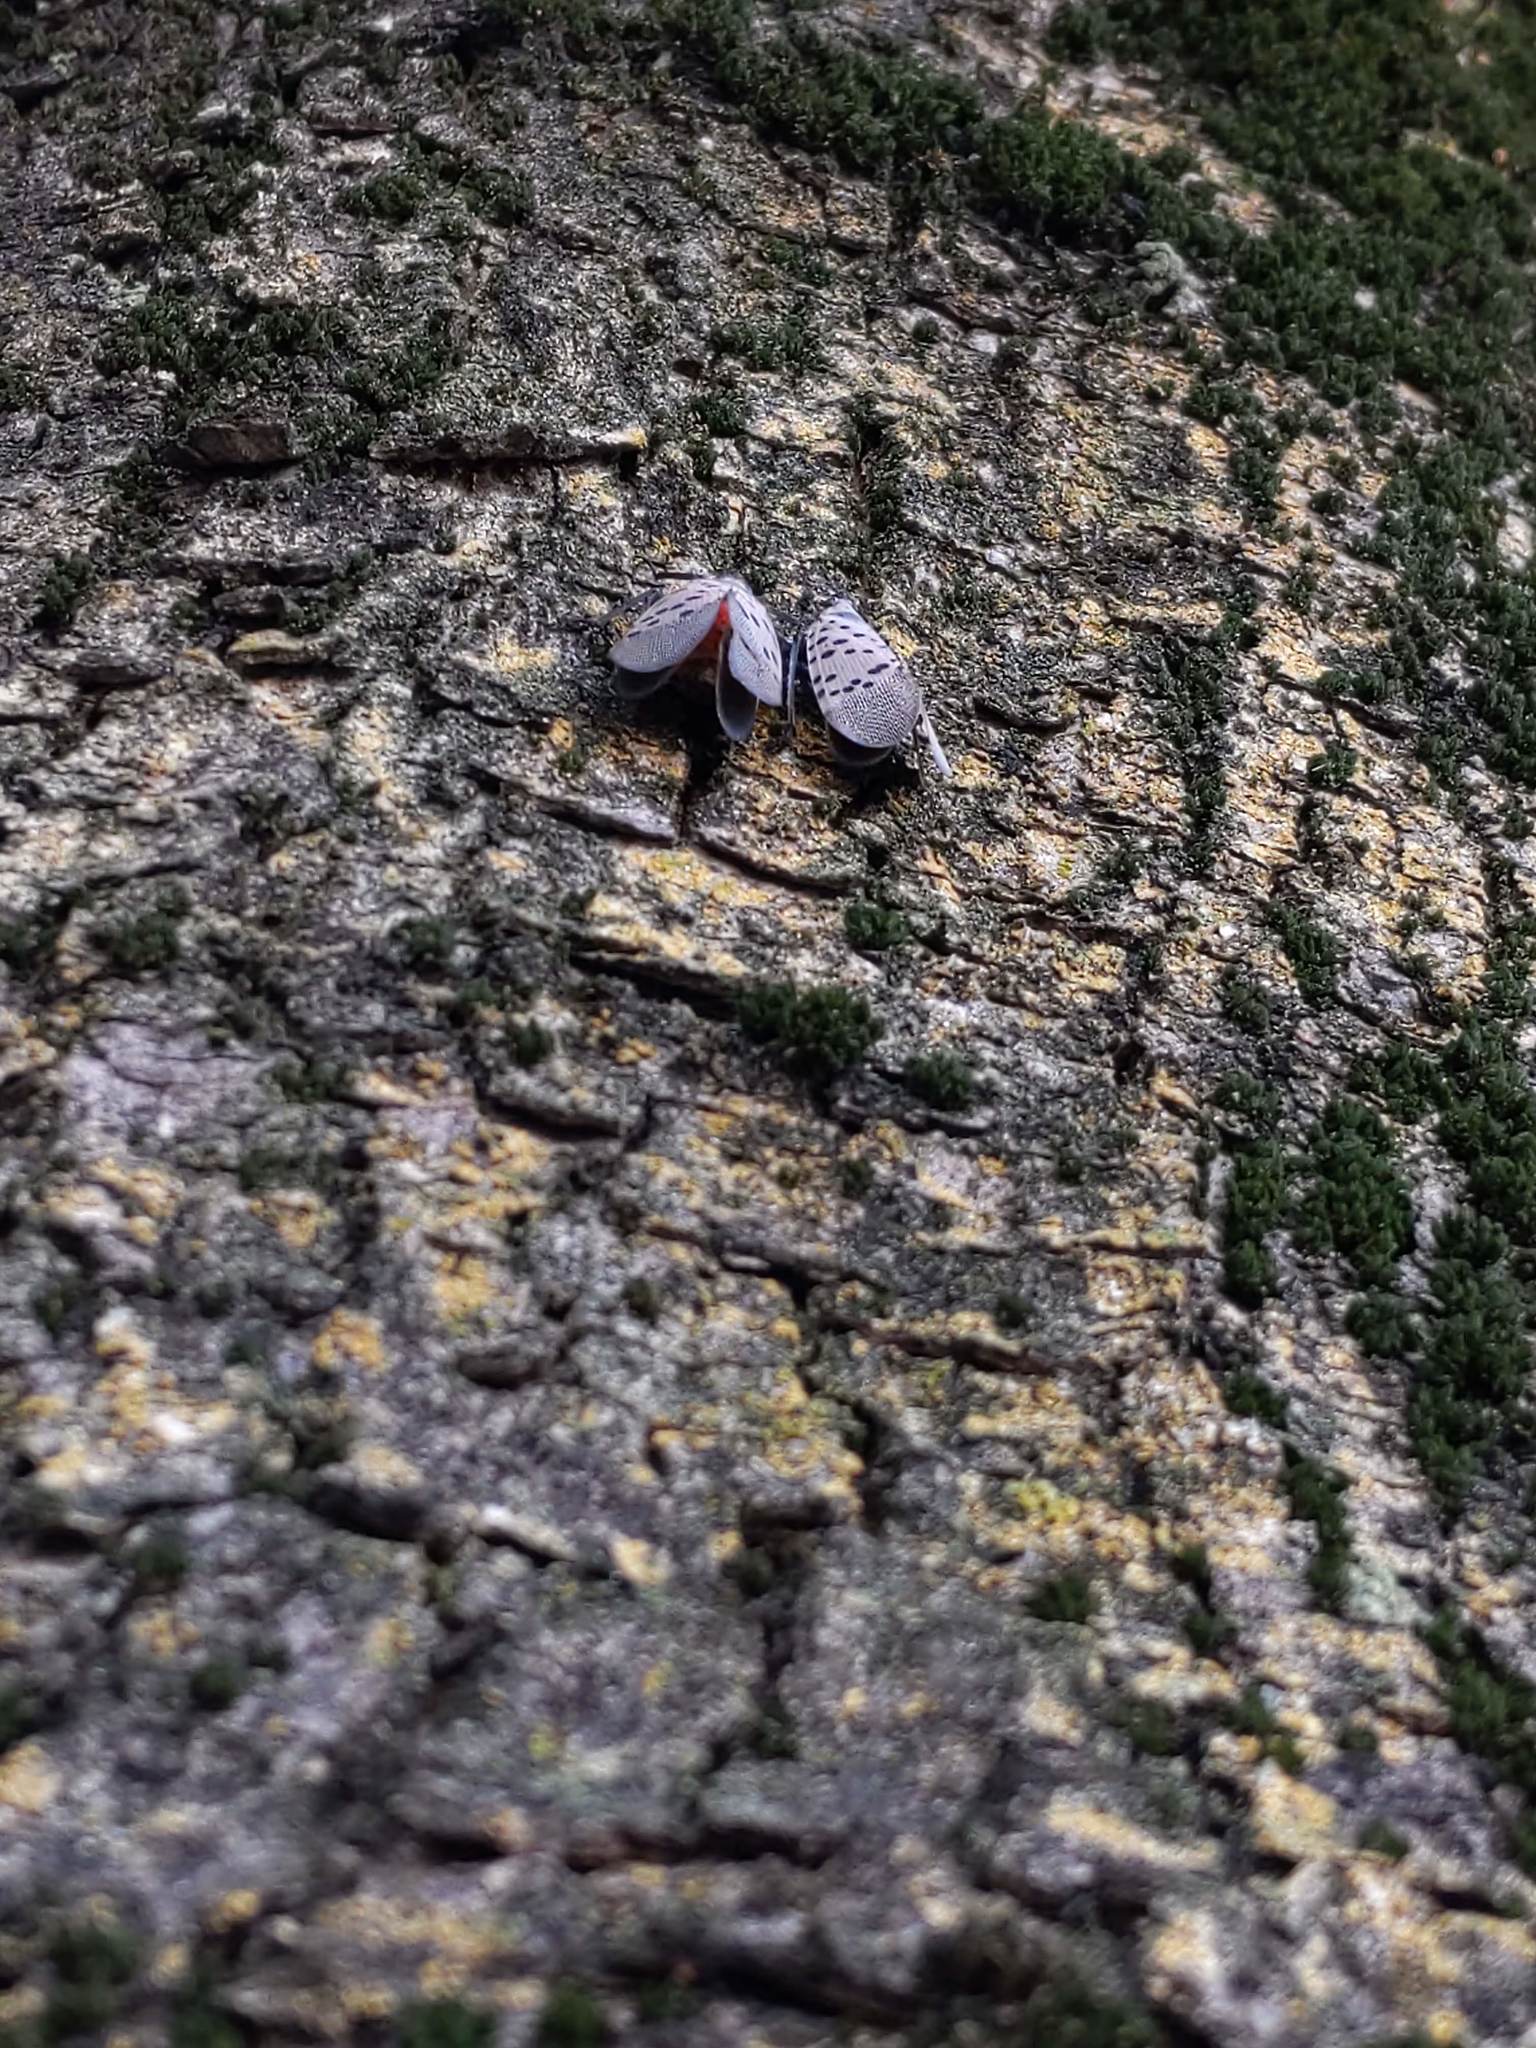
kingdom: Animalia
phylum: Arthropoda
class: Insecta
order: Hemiptera
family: Fulgoridae
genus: Lycorma
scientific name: Lycorma delicatula
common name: Spotted lanternfly
